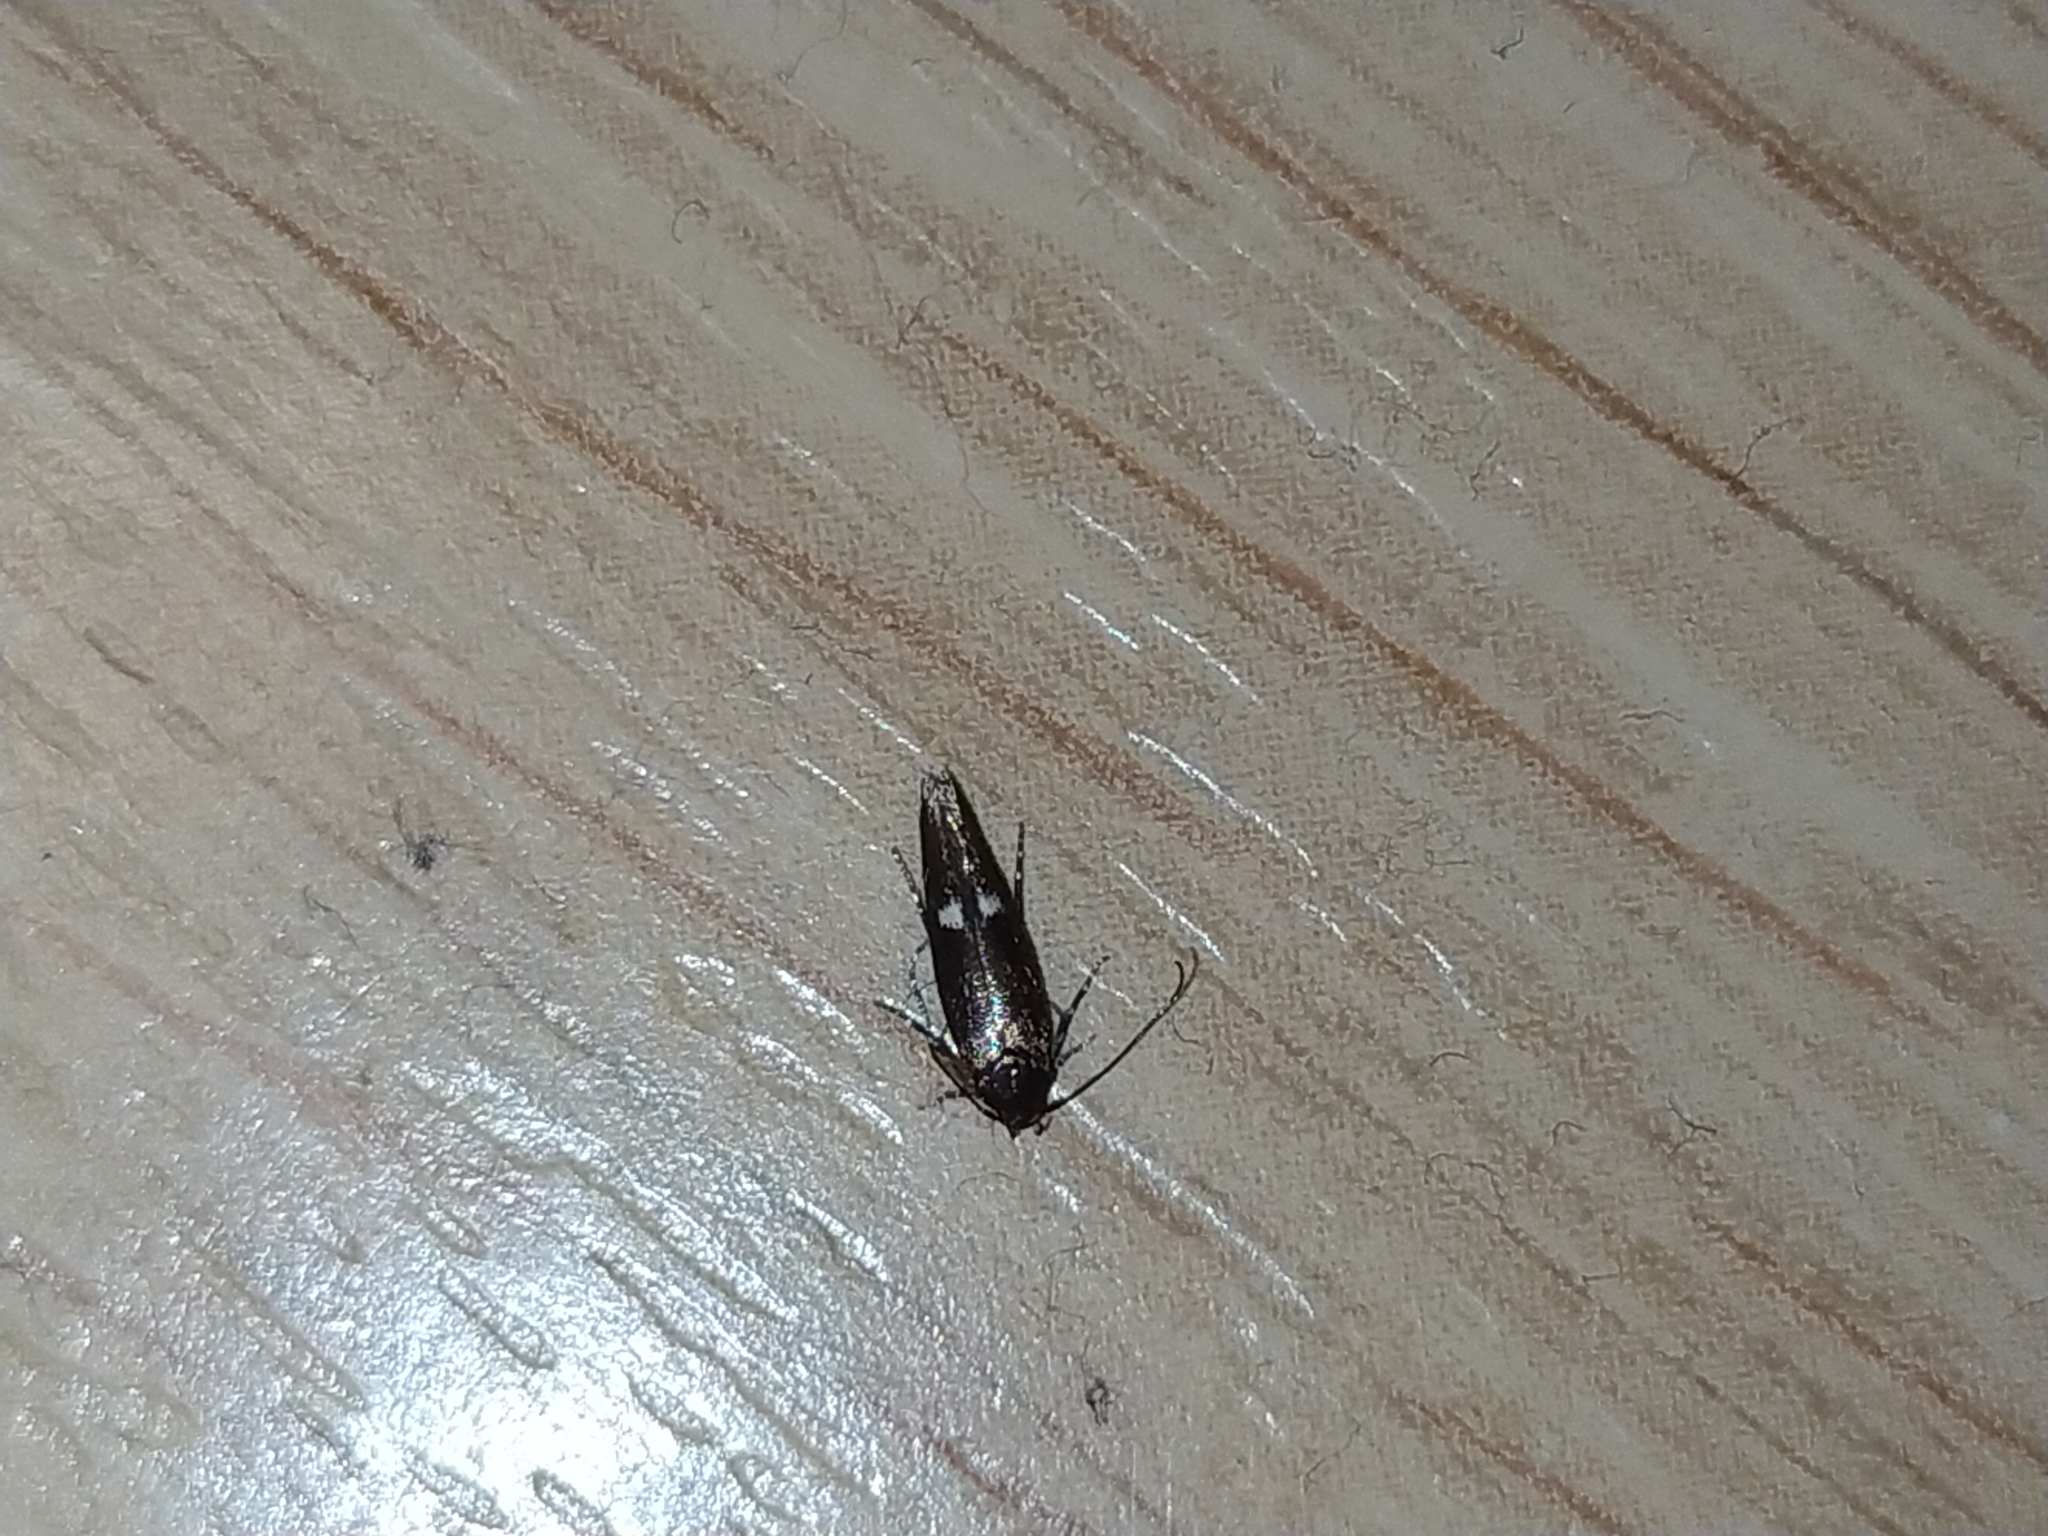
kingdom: Animalia
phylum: Arthropoda
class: Insecta
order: Lepidoptera
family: Momphidae
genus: Mompha
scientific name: Mompha langiella
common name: Clouded cosmet
